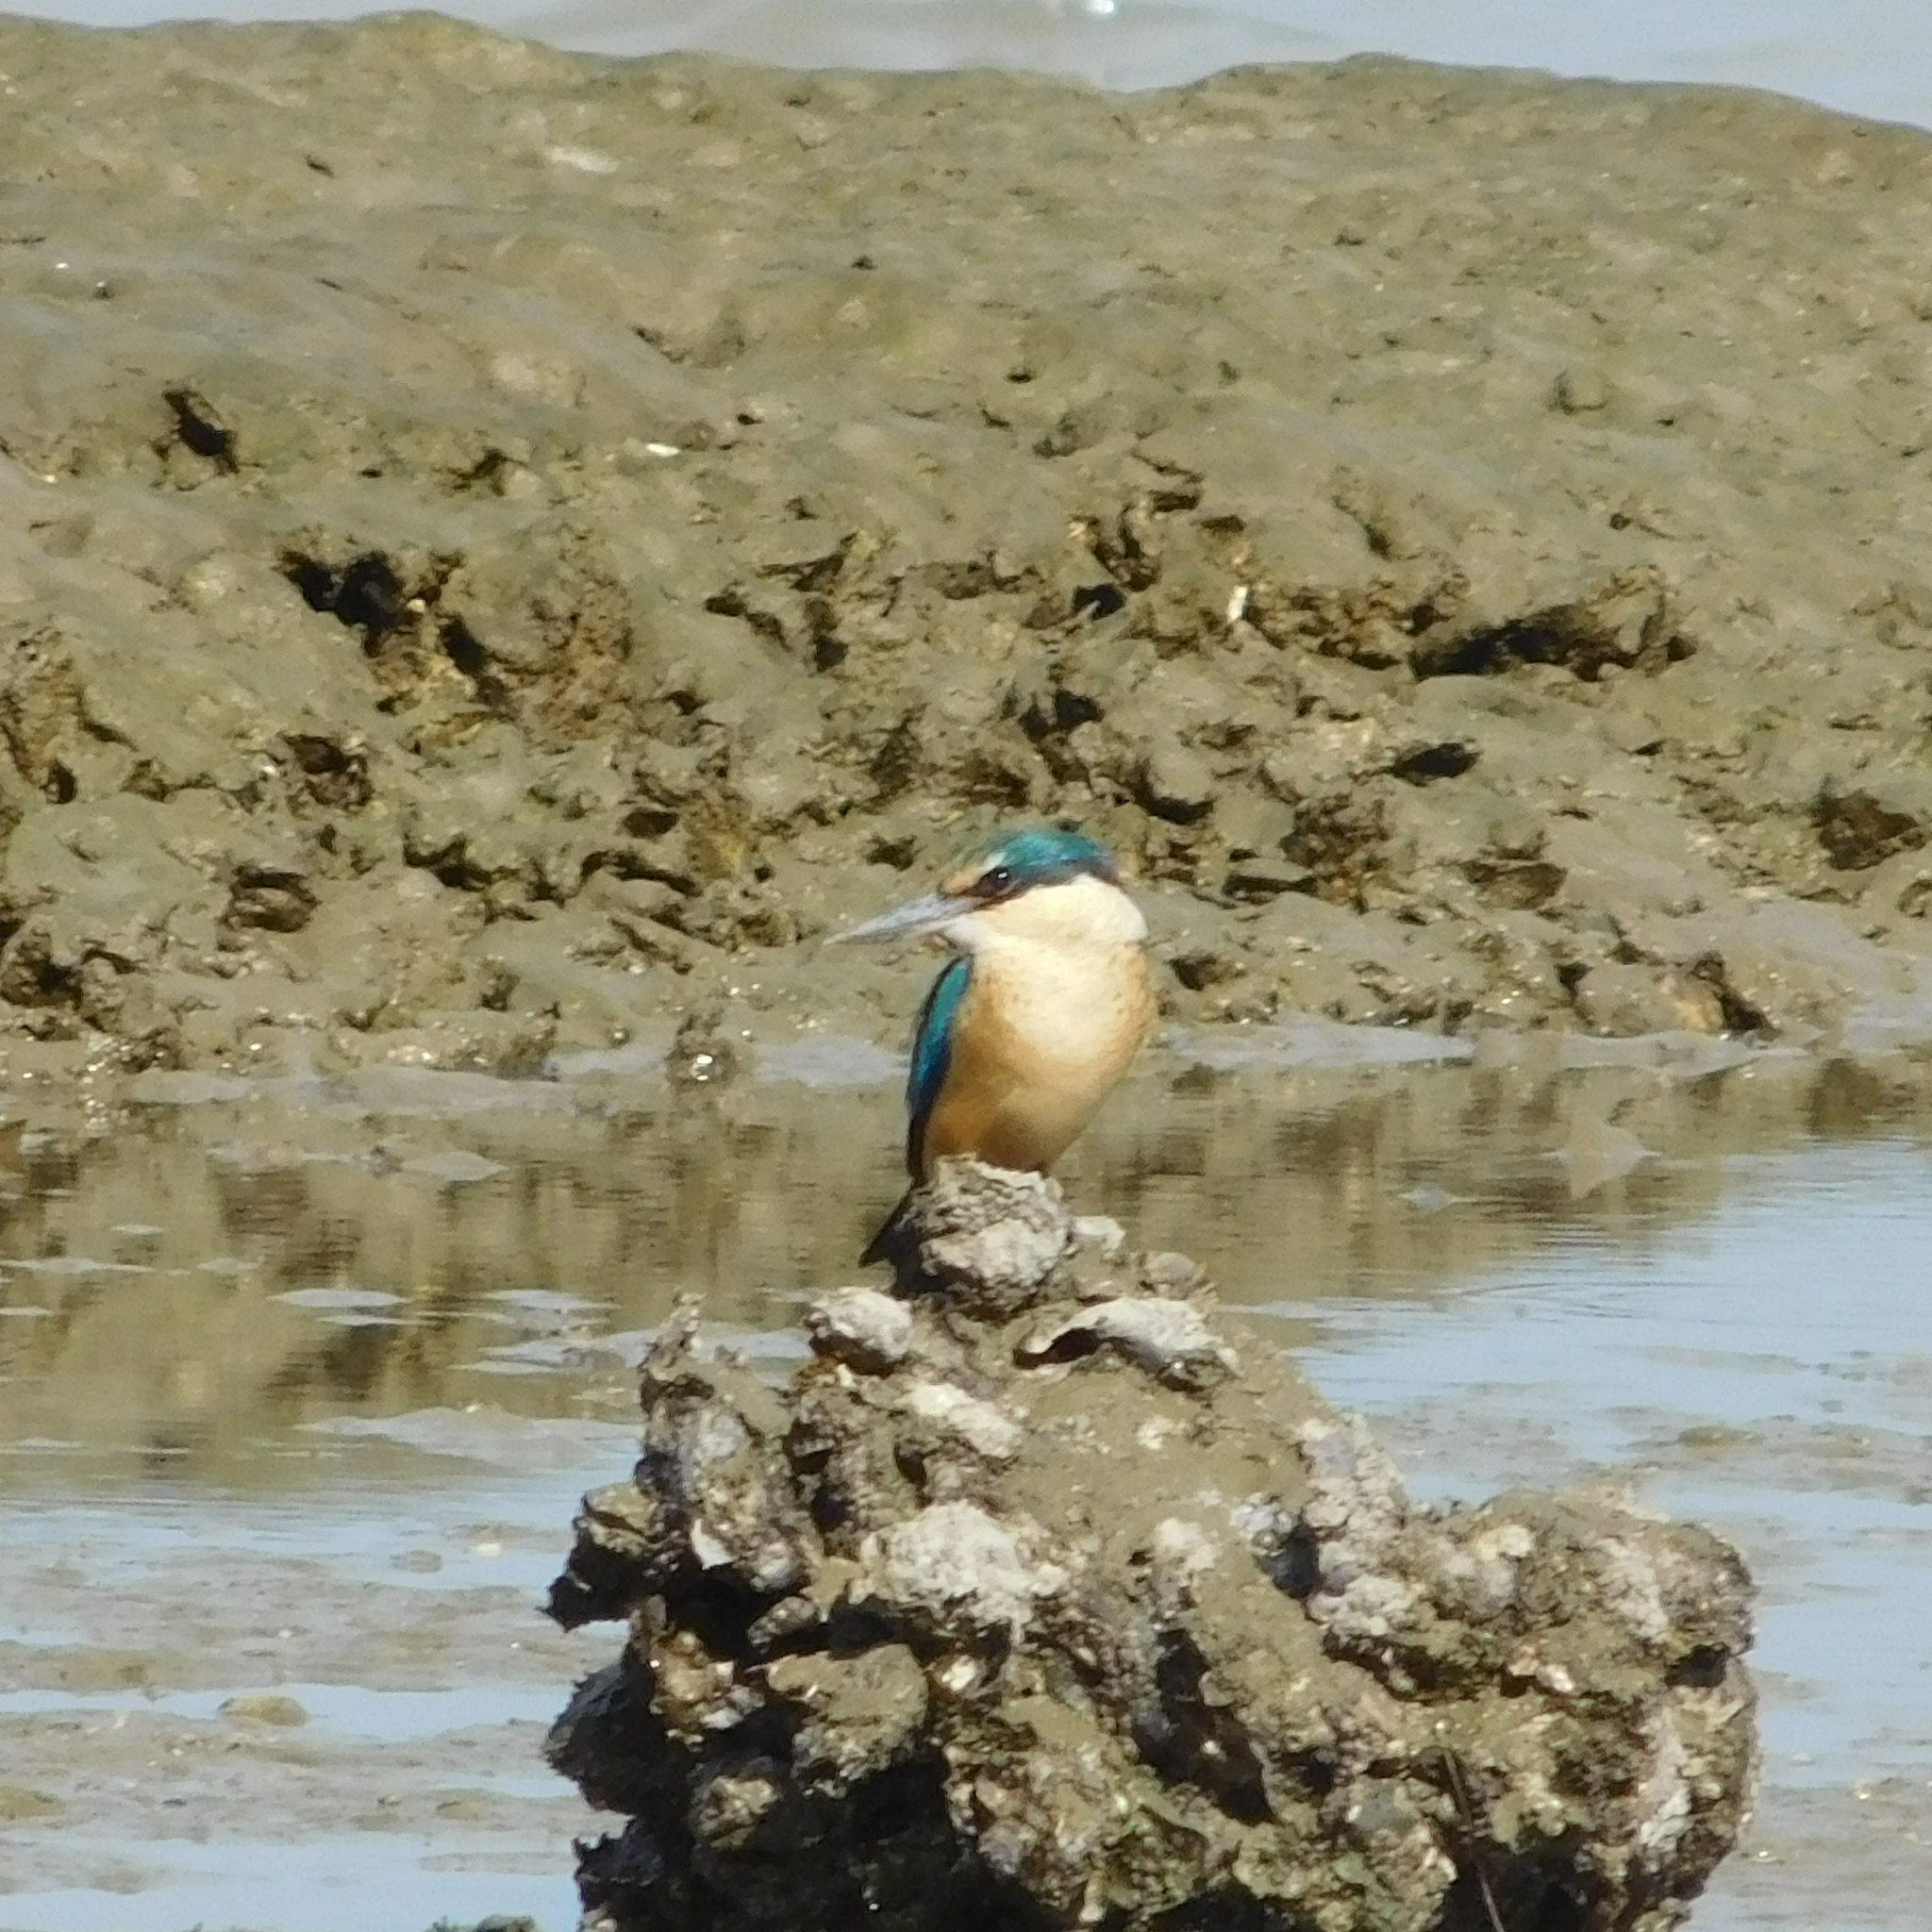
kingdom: Animalia
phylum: Chordata
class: Aves
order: Coraciiformes
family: Alcedinidae
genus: Todiramphus
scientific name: Todiramphus sanctus
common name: Sacred kingfisher
